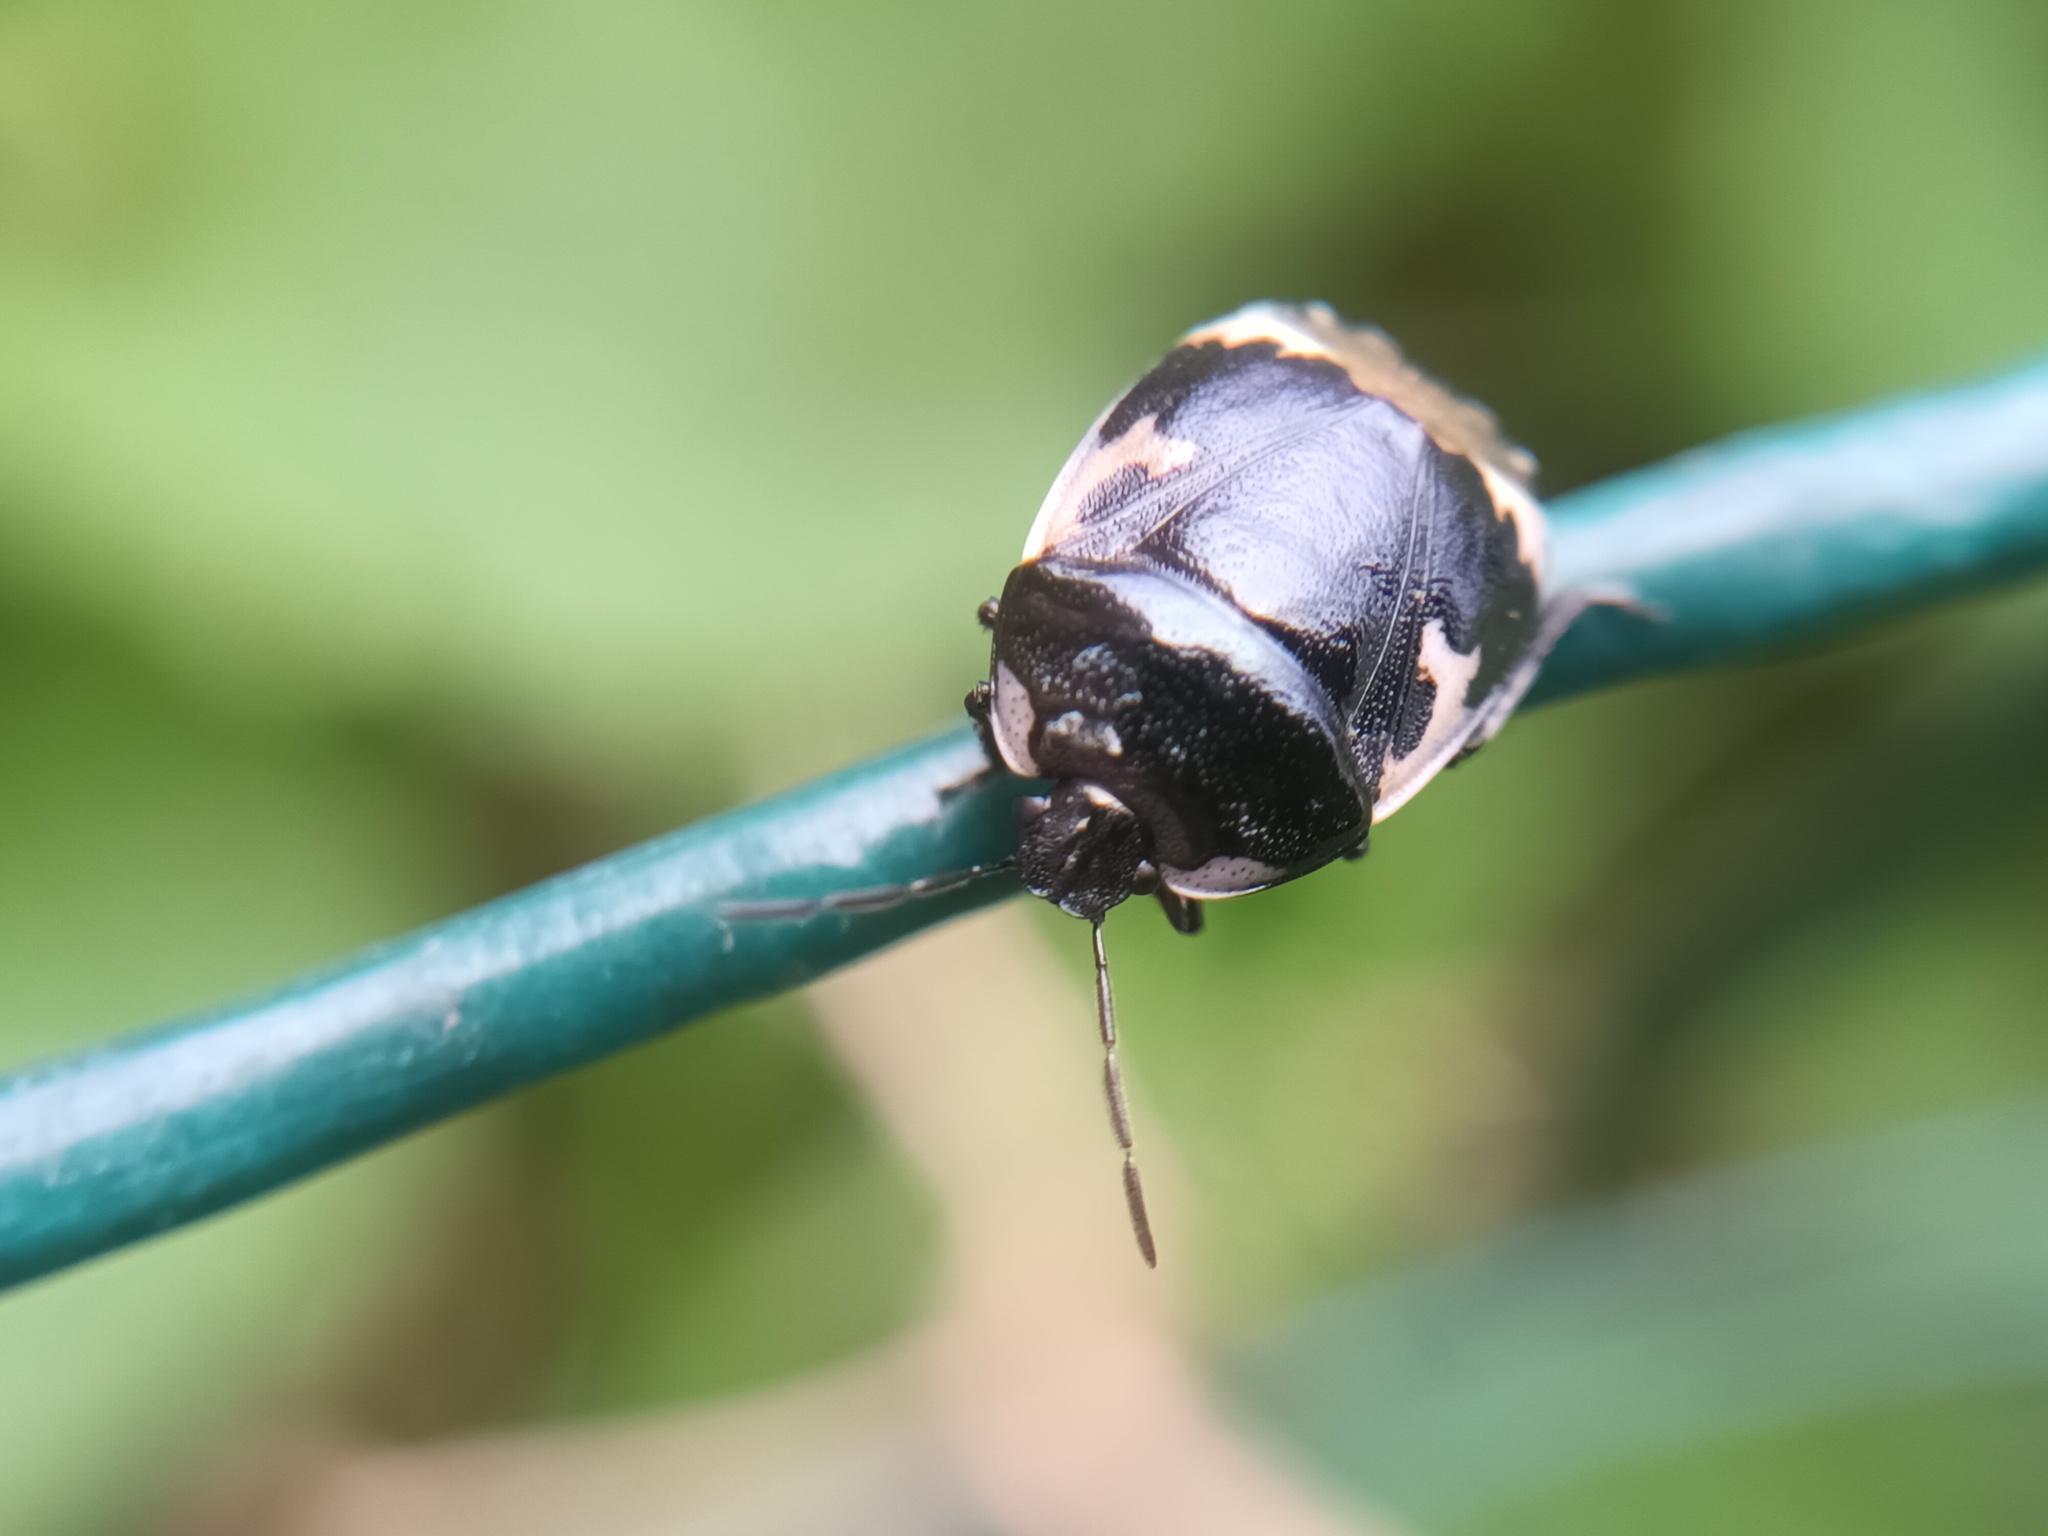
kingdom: Animalia
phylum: Arthropoda
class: Insecta
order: Hemiptera
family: Cydnidae
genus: Tritomegas
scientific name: Tritomegas bicolor
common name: Pied shieldbug
